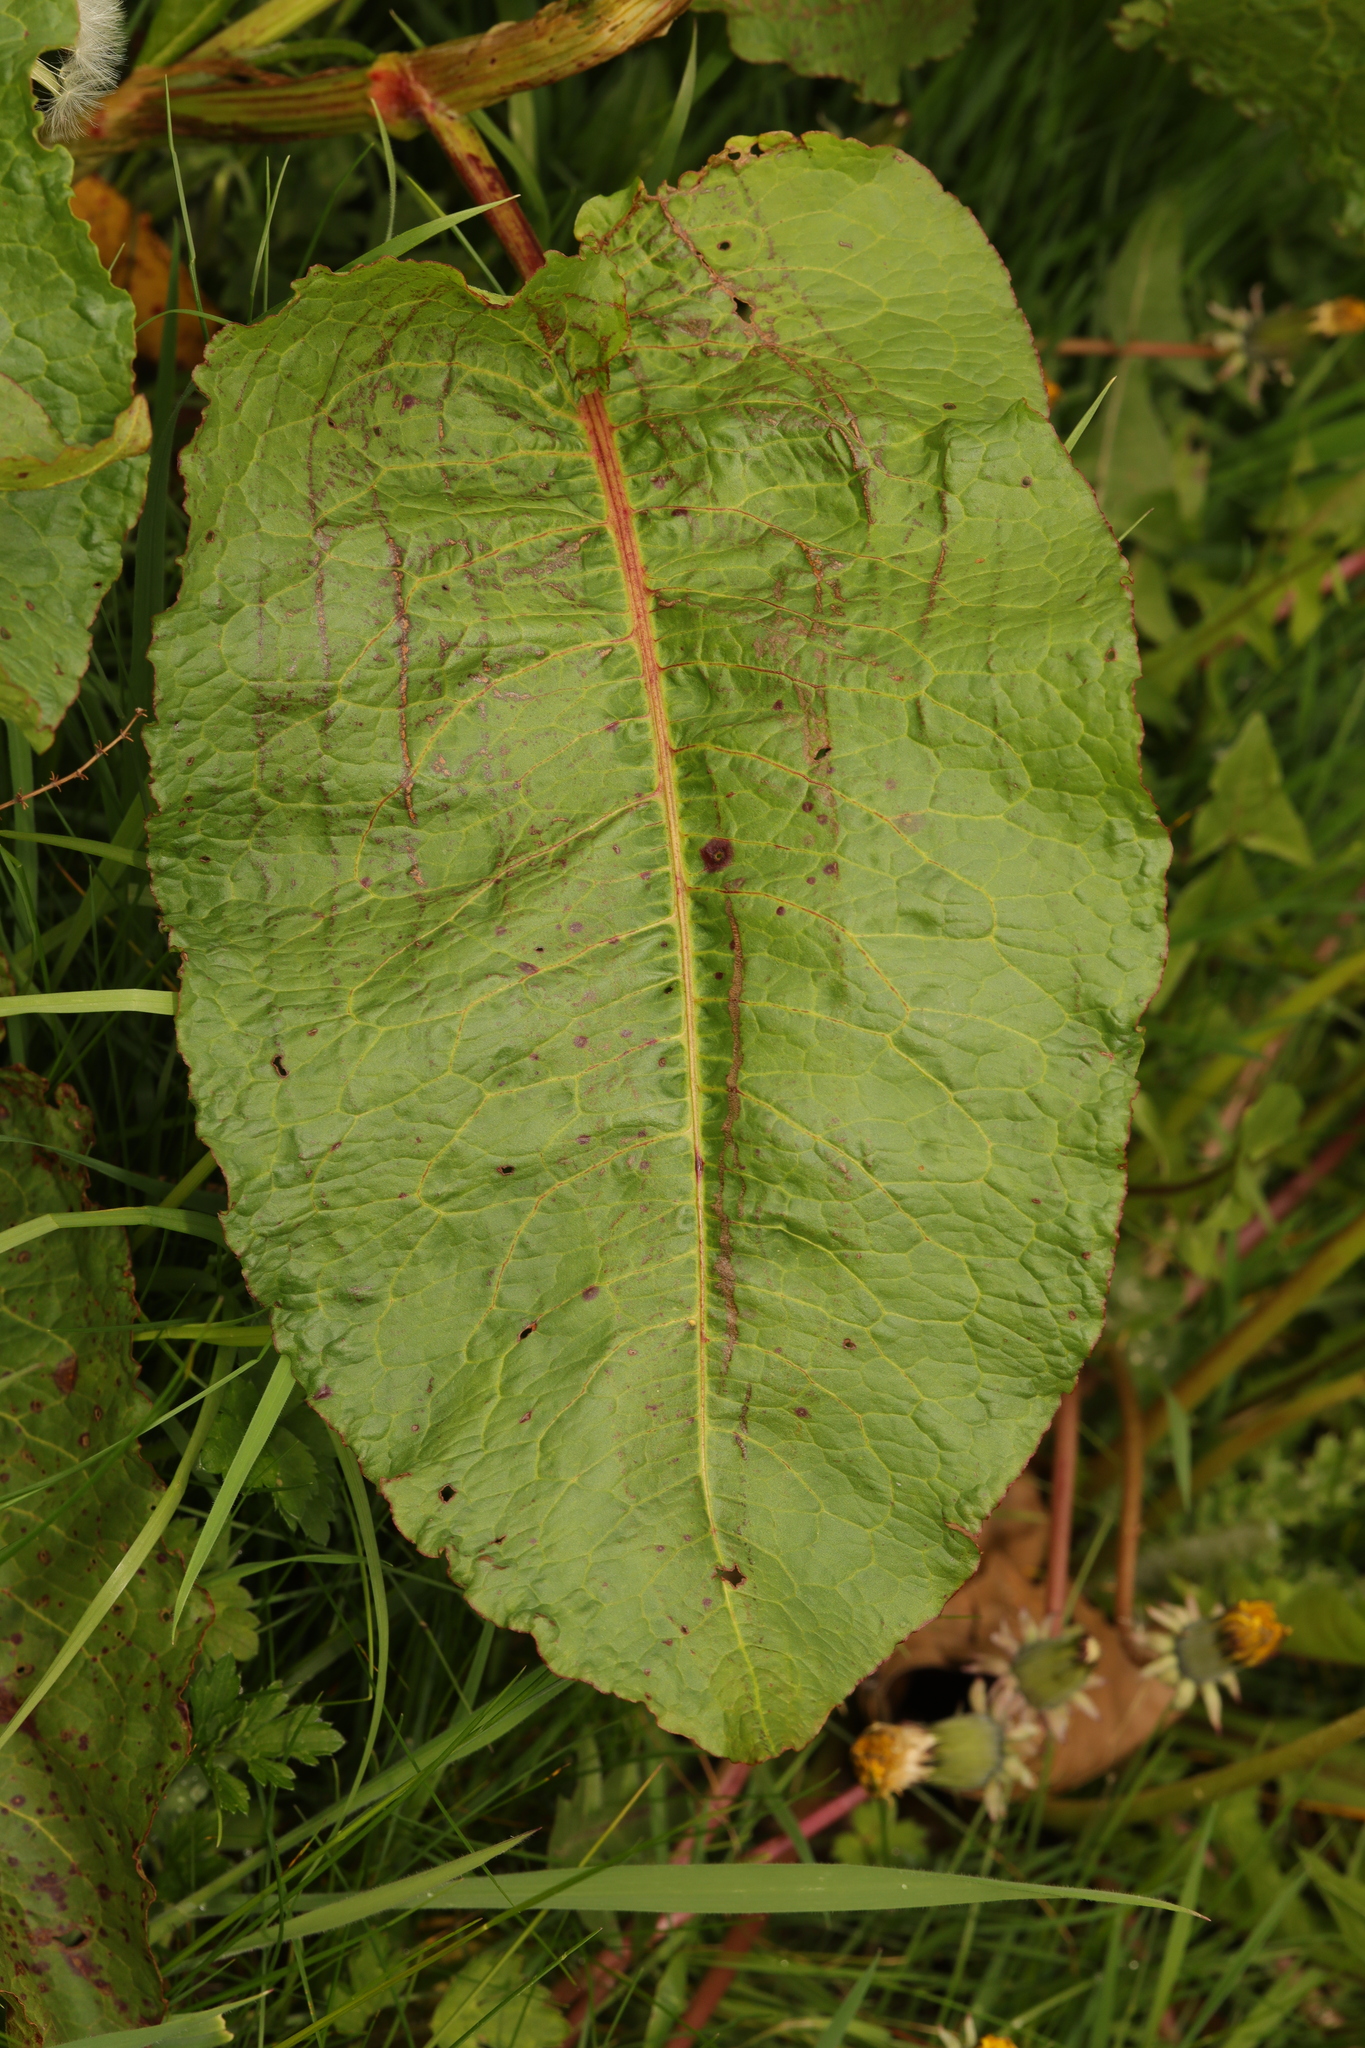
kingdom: Plantae
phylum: Tracheophyta
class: Magnoliopsida
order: Caryophyllales
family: Polygonaceae
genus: Rumex
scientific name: Rumex obtusifolius
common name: Bitter dock
